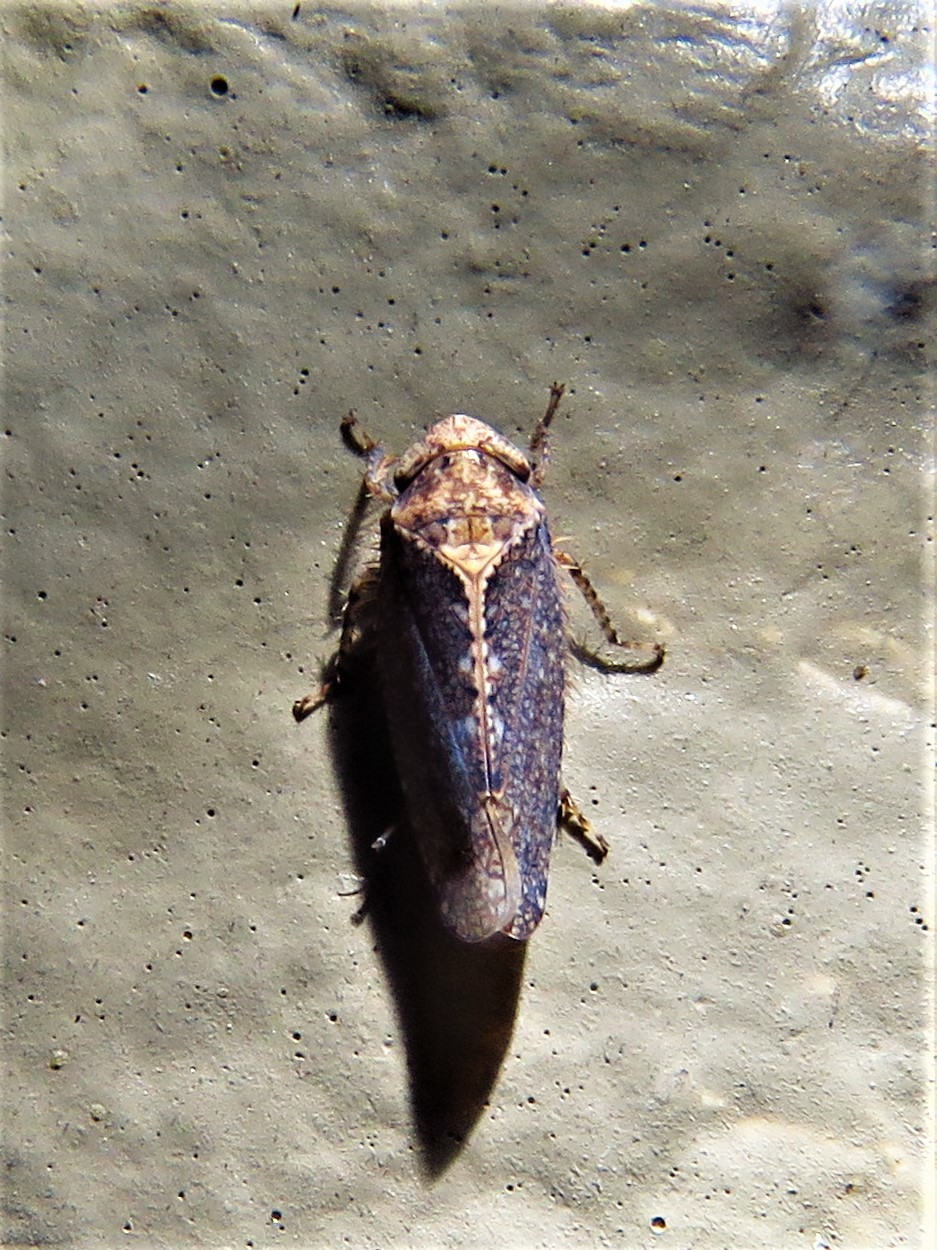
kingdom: Animalia
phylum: Arthropoda
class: Insecta
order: Hemiptera
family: Cicadellidae
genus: Excultanus
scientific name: Excultanus excultus
